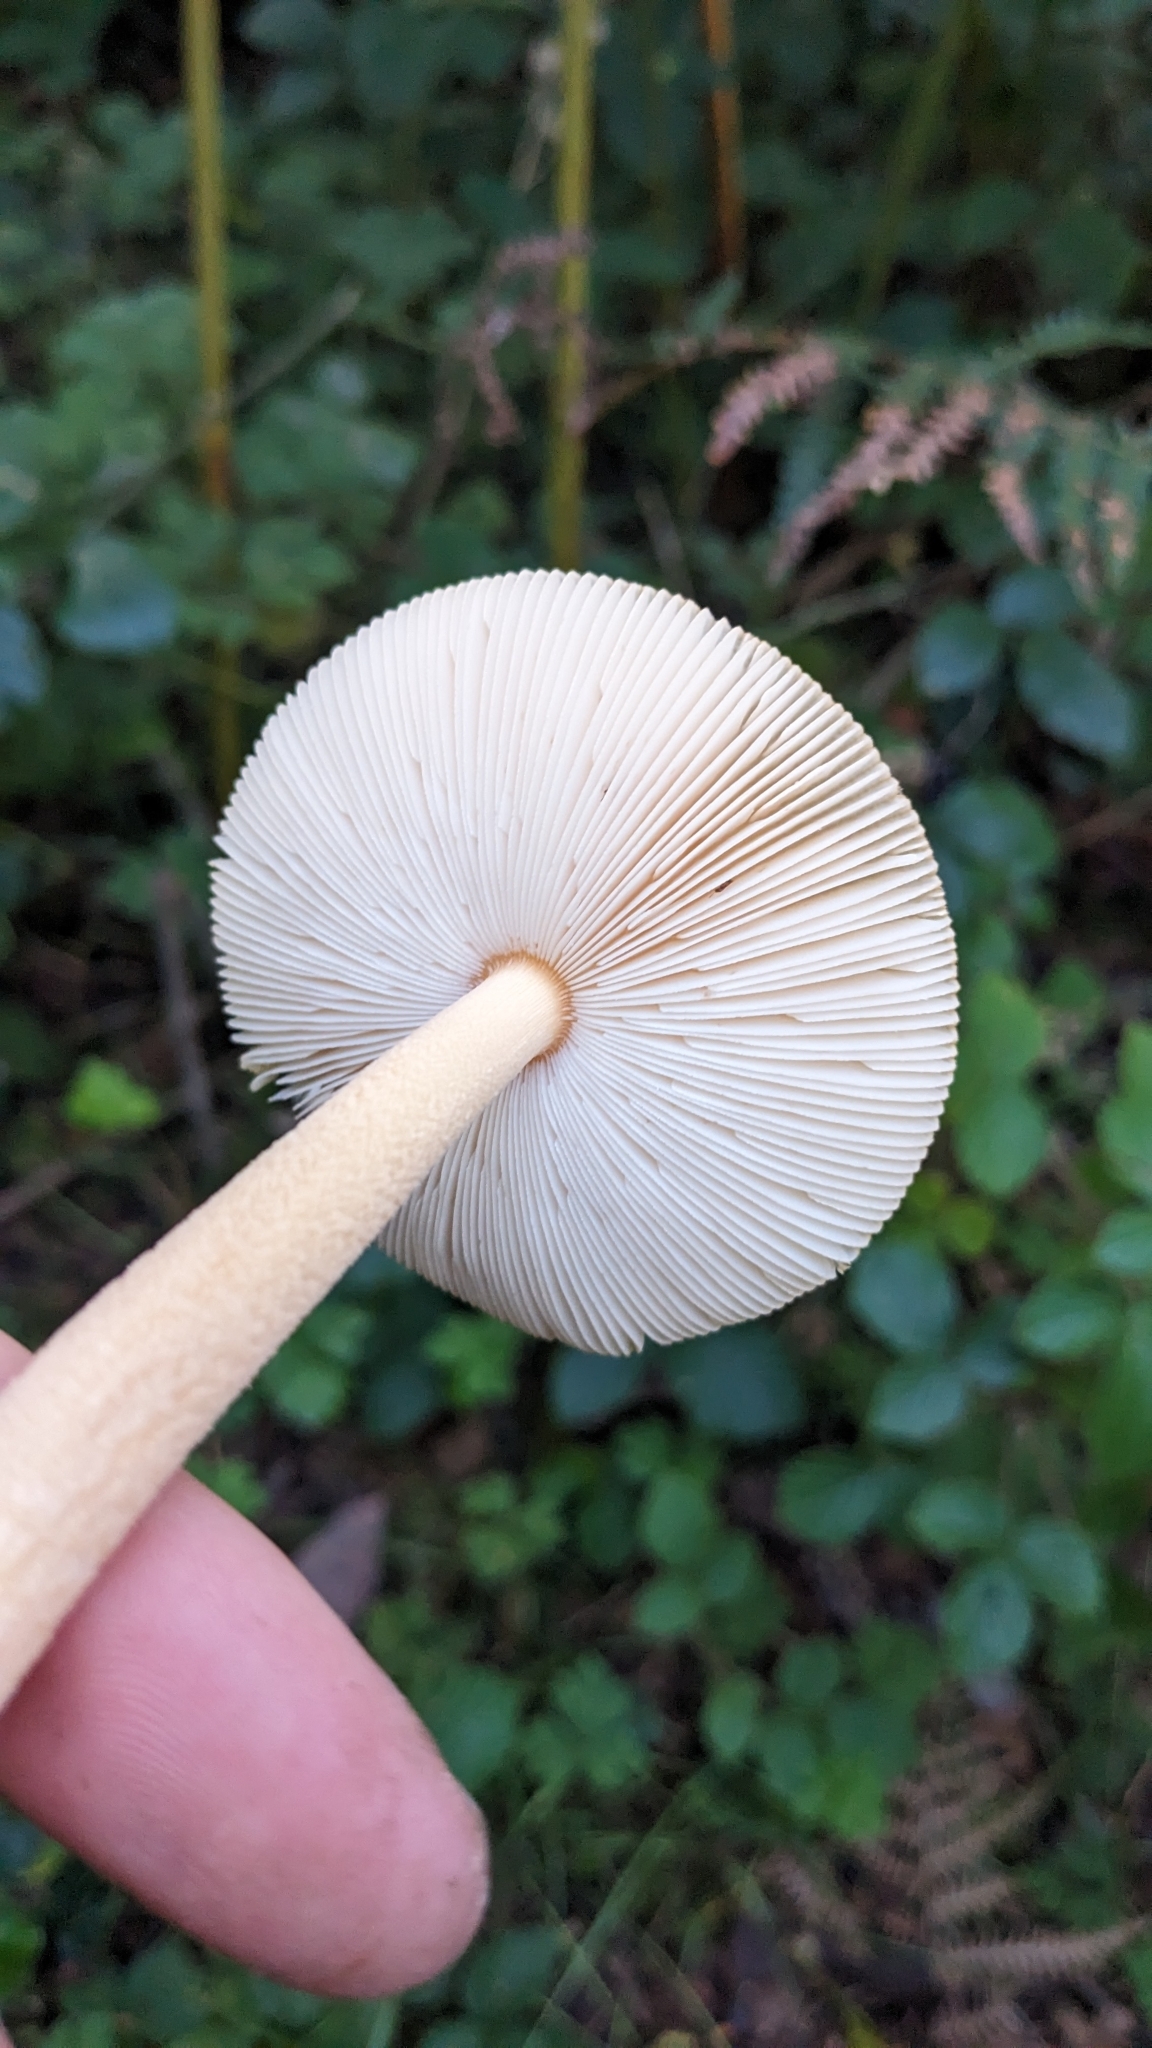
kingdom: Fungi
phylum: Basidiomycota
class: Agaricomycetes
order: Agaricales
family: Amanitaceae
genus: Amanita
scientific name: Amanita crocea
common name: Orange grisette
